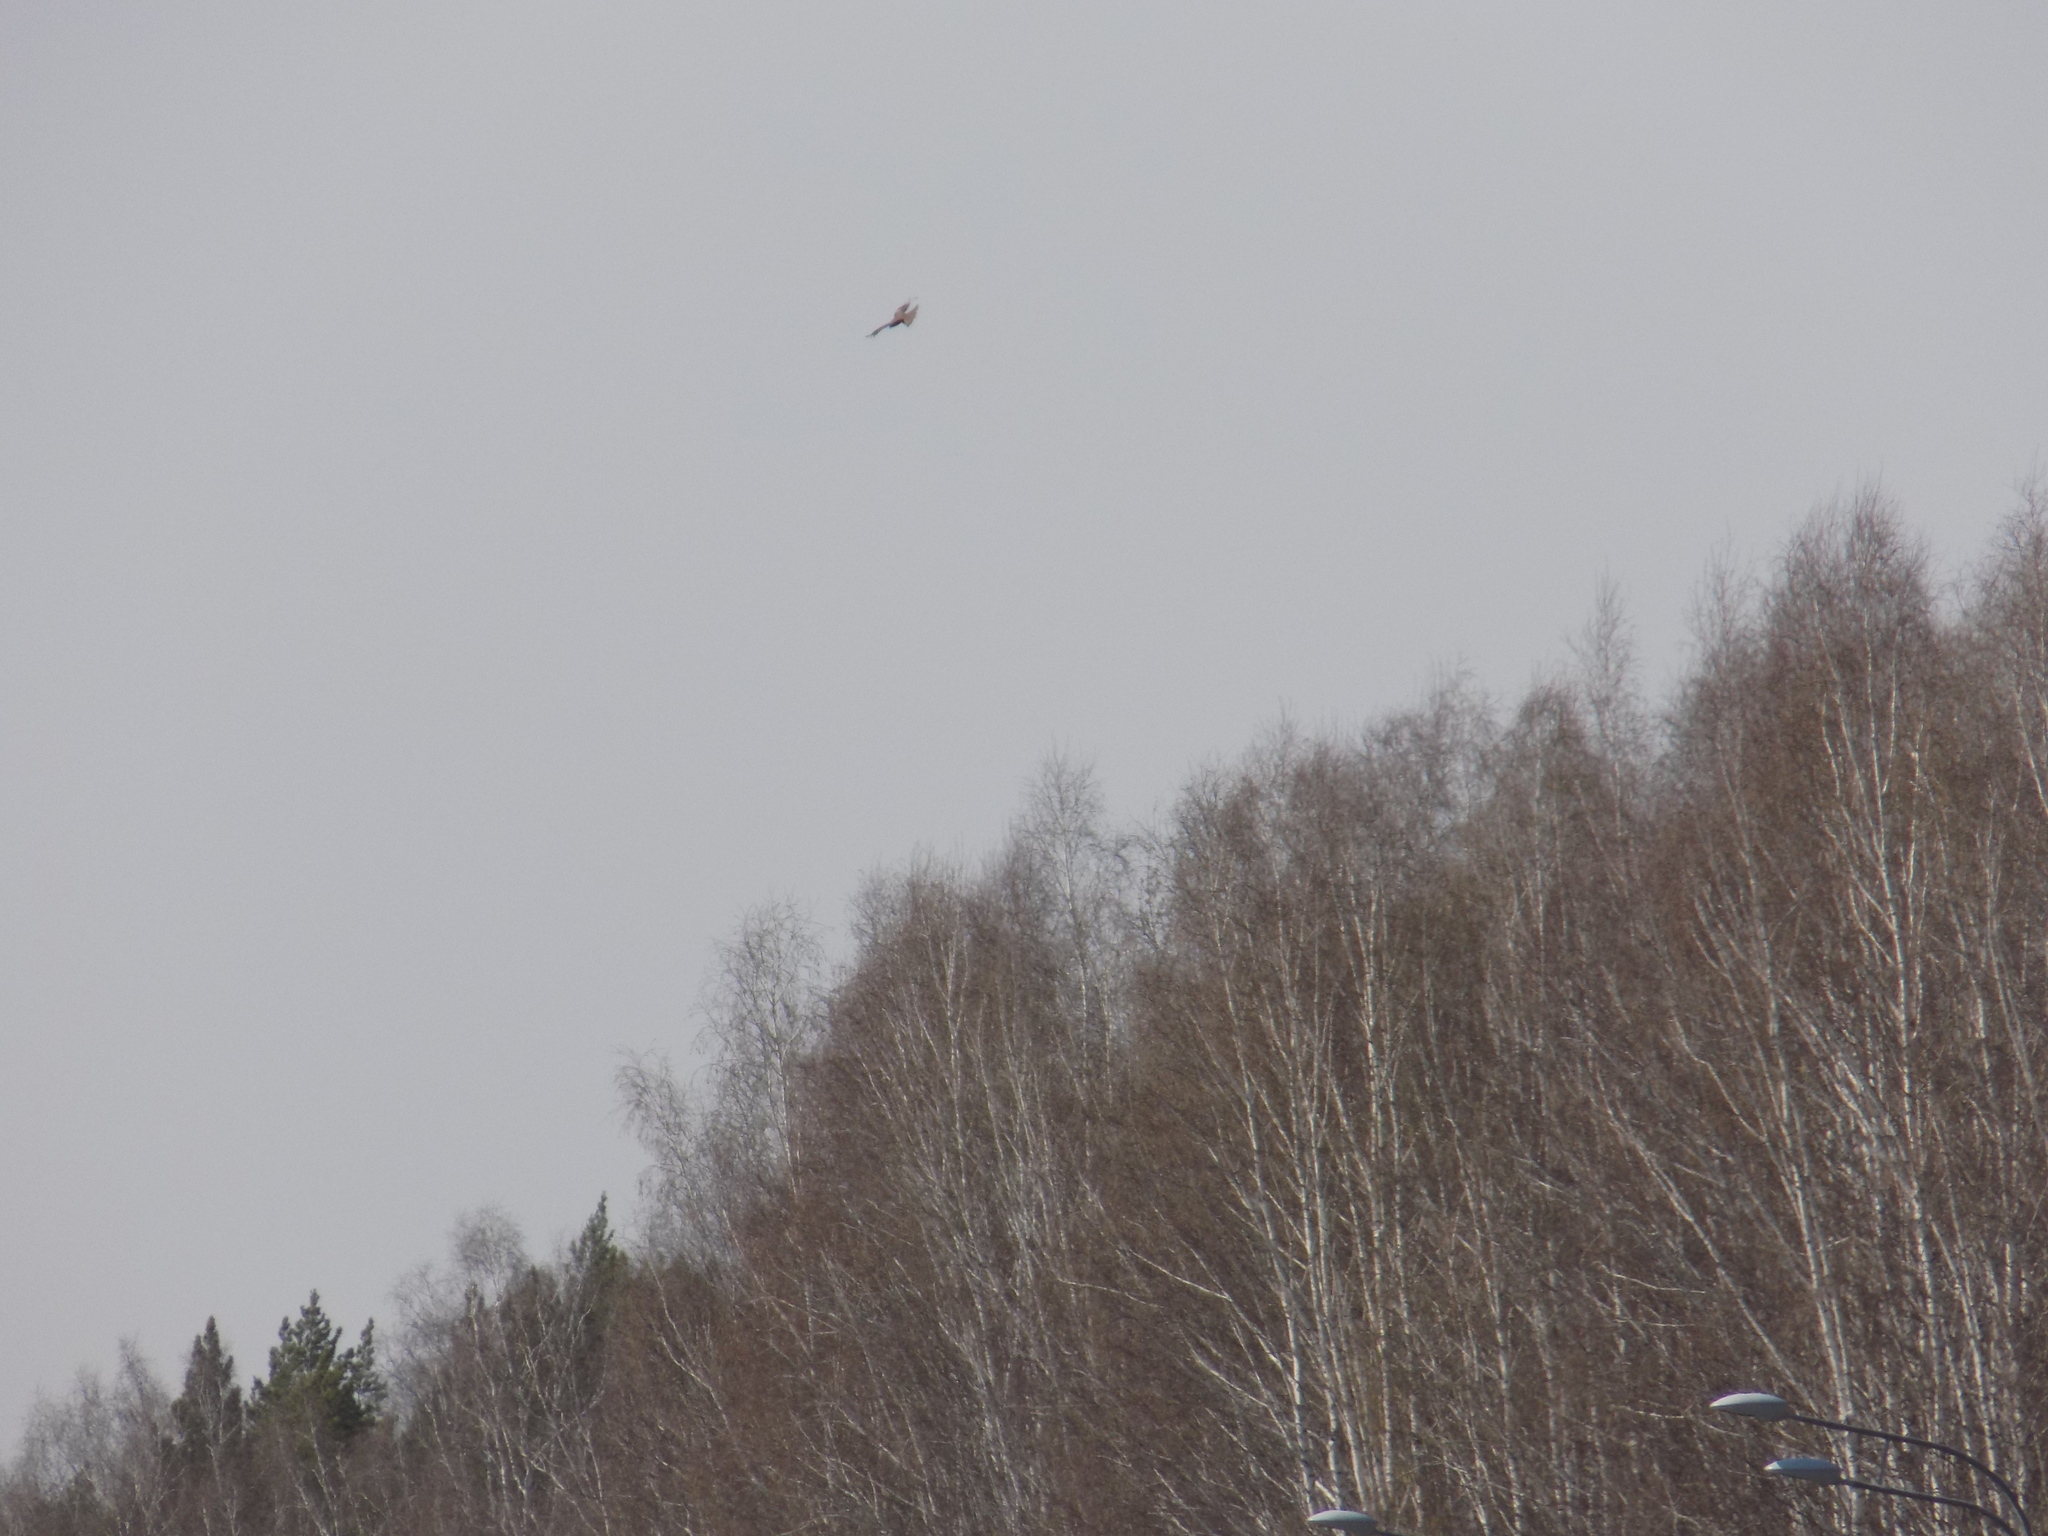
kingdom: Animalia
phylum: Chordata
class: Aves
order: Accipitriformes
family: Accipitridae
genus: Milvus
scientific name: Milvus migrans
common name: Black kite
